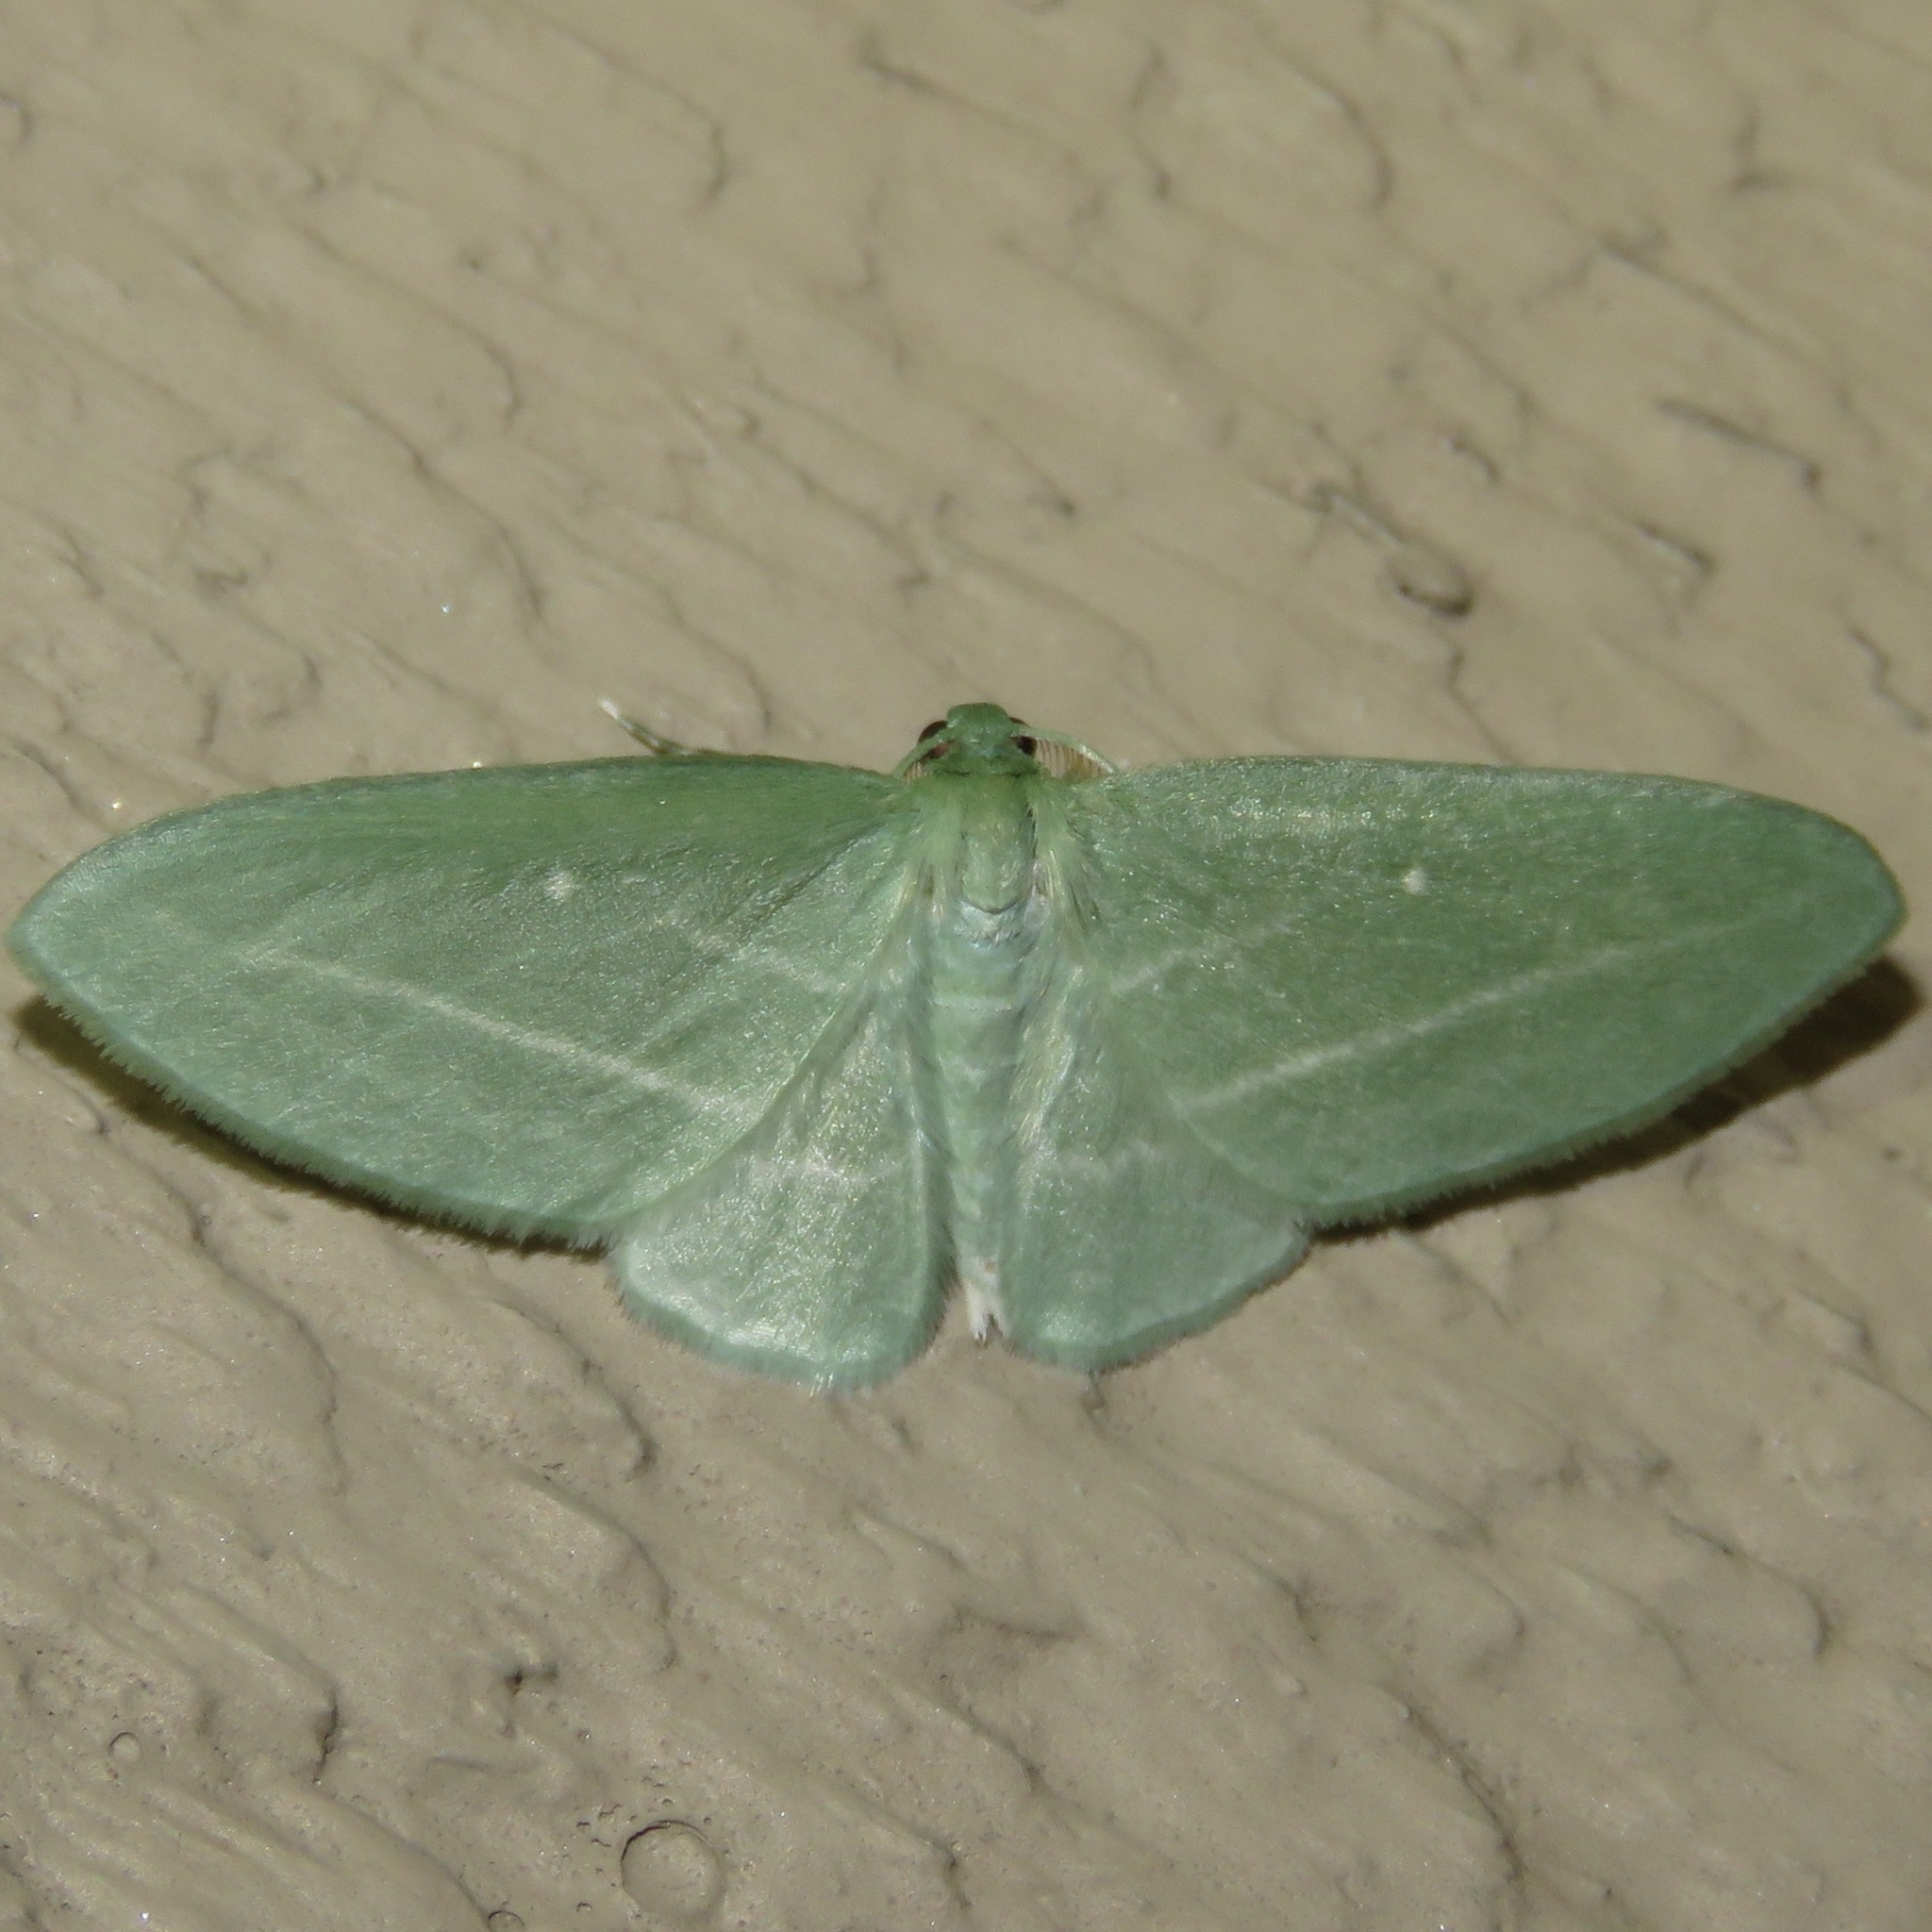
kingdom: Animalia
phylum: Arthropoda
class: Insecta
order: Lepidoptera
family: Geometridae
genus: Dyspteris
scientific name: Dyspteris abortivaria
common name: Bad-wing
